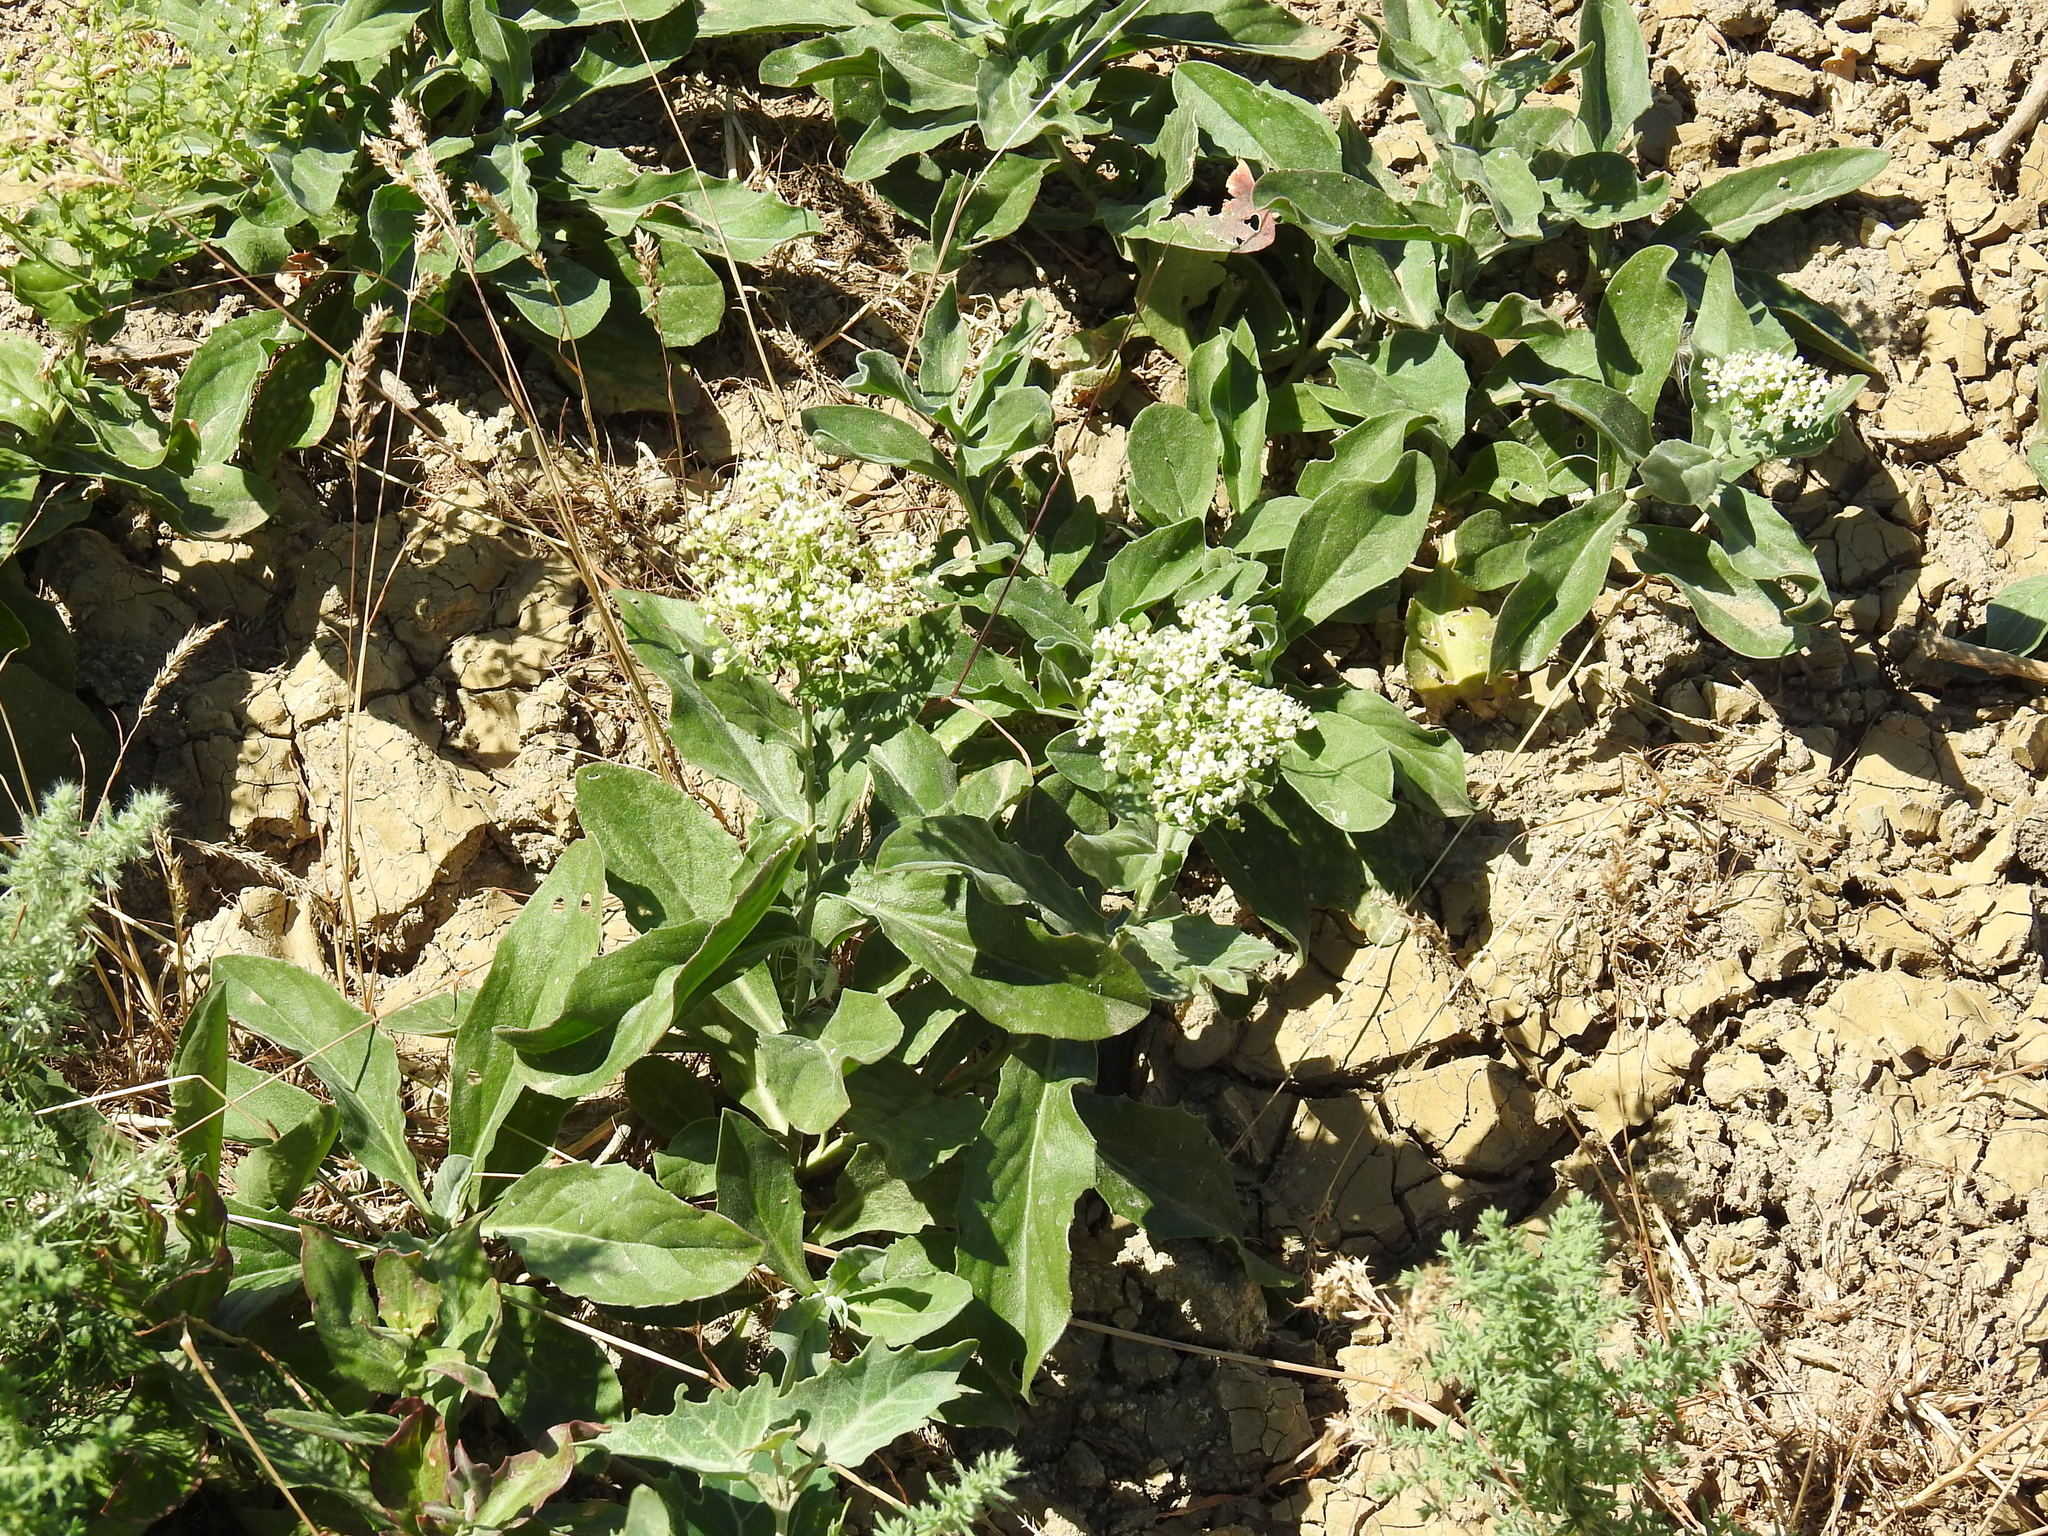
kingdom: Plantae
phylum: Tracheophyta
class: Magnoliopsida
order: Brassicales
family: Brassicaceae
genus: Lepidium
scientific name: Lepidium draba
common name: Hoary cress
